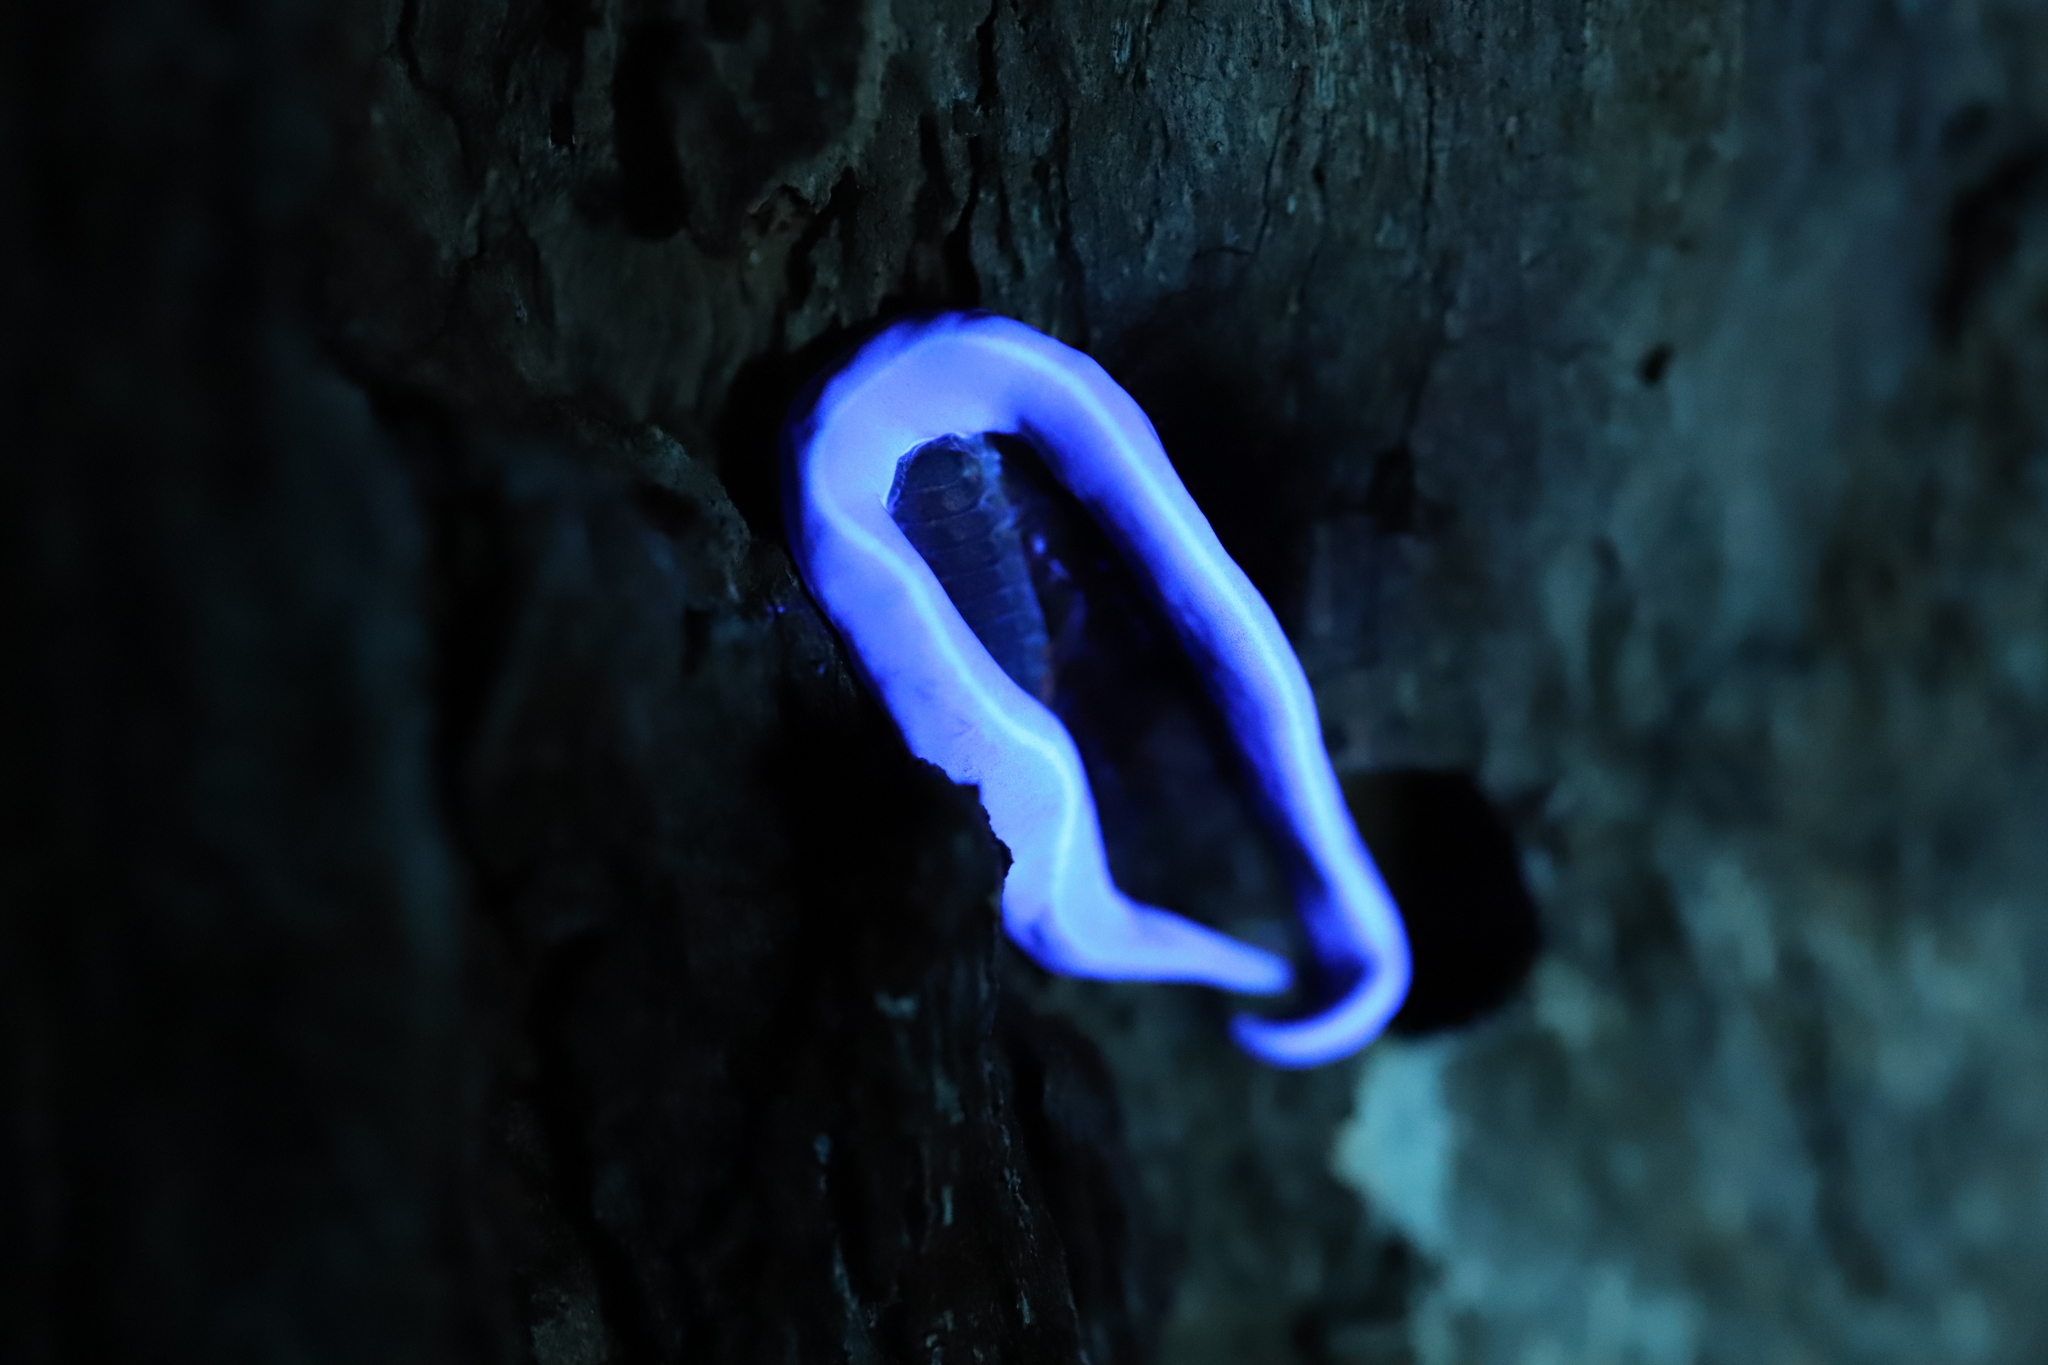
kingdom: Animalia
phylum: Platyhelminthes
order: Tricladida
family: Geoplanidae
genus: Caenoplana
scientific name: Caenoplana coerulea
